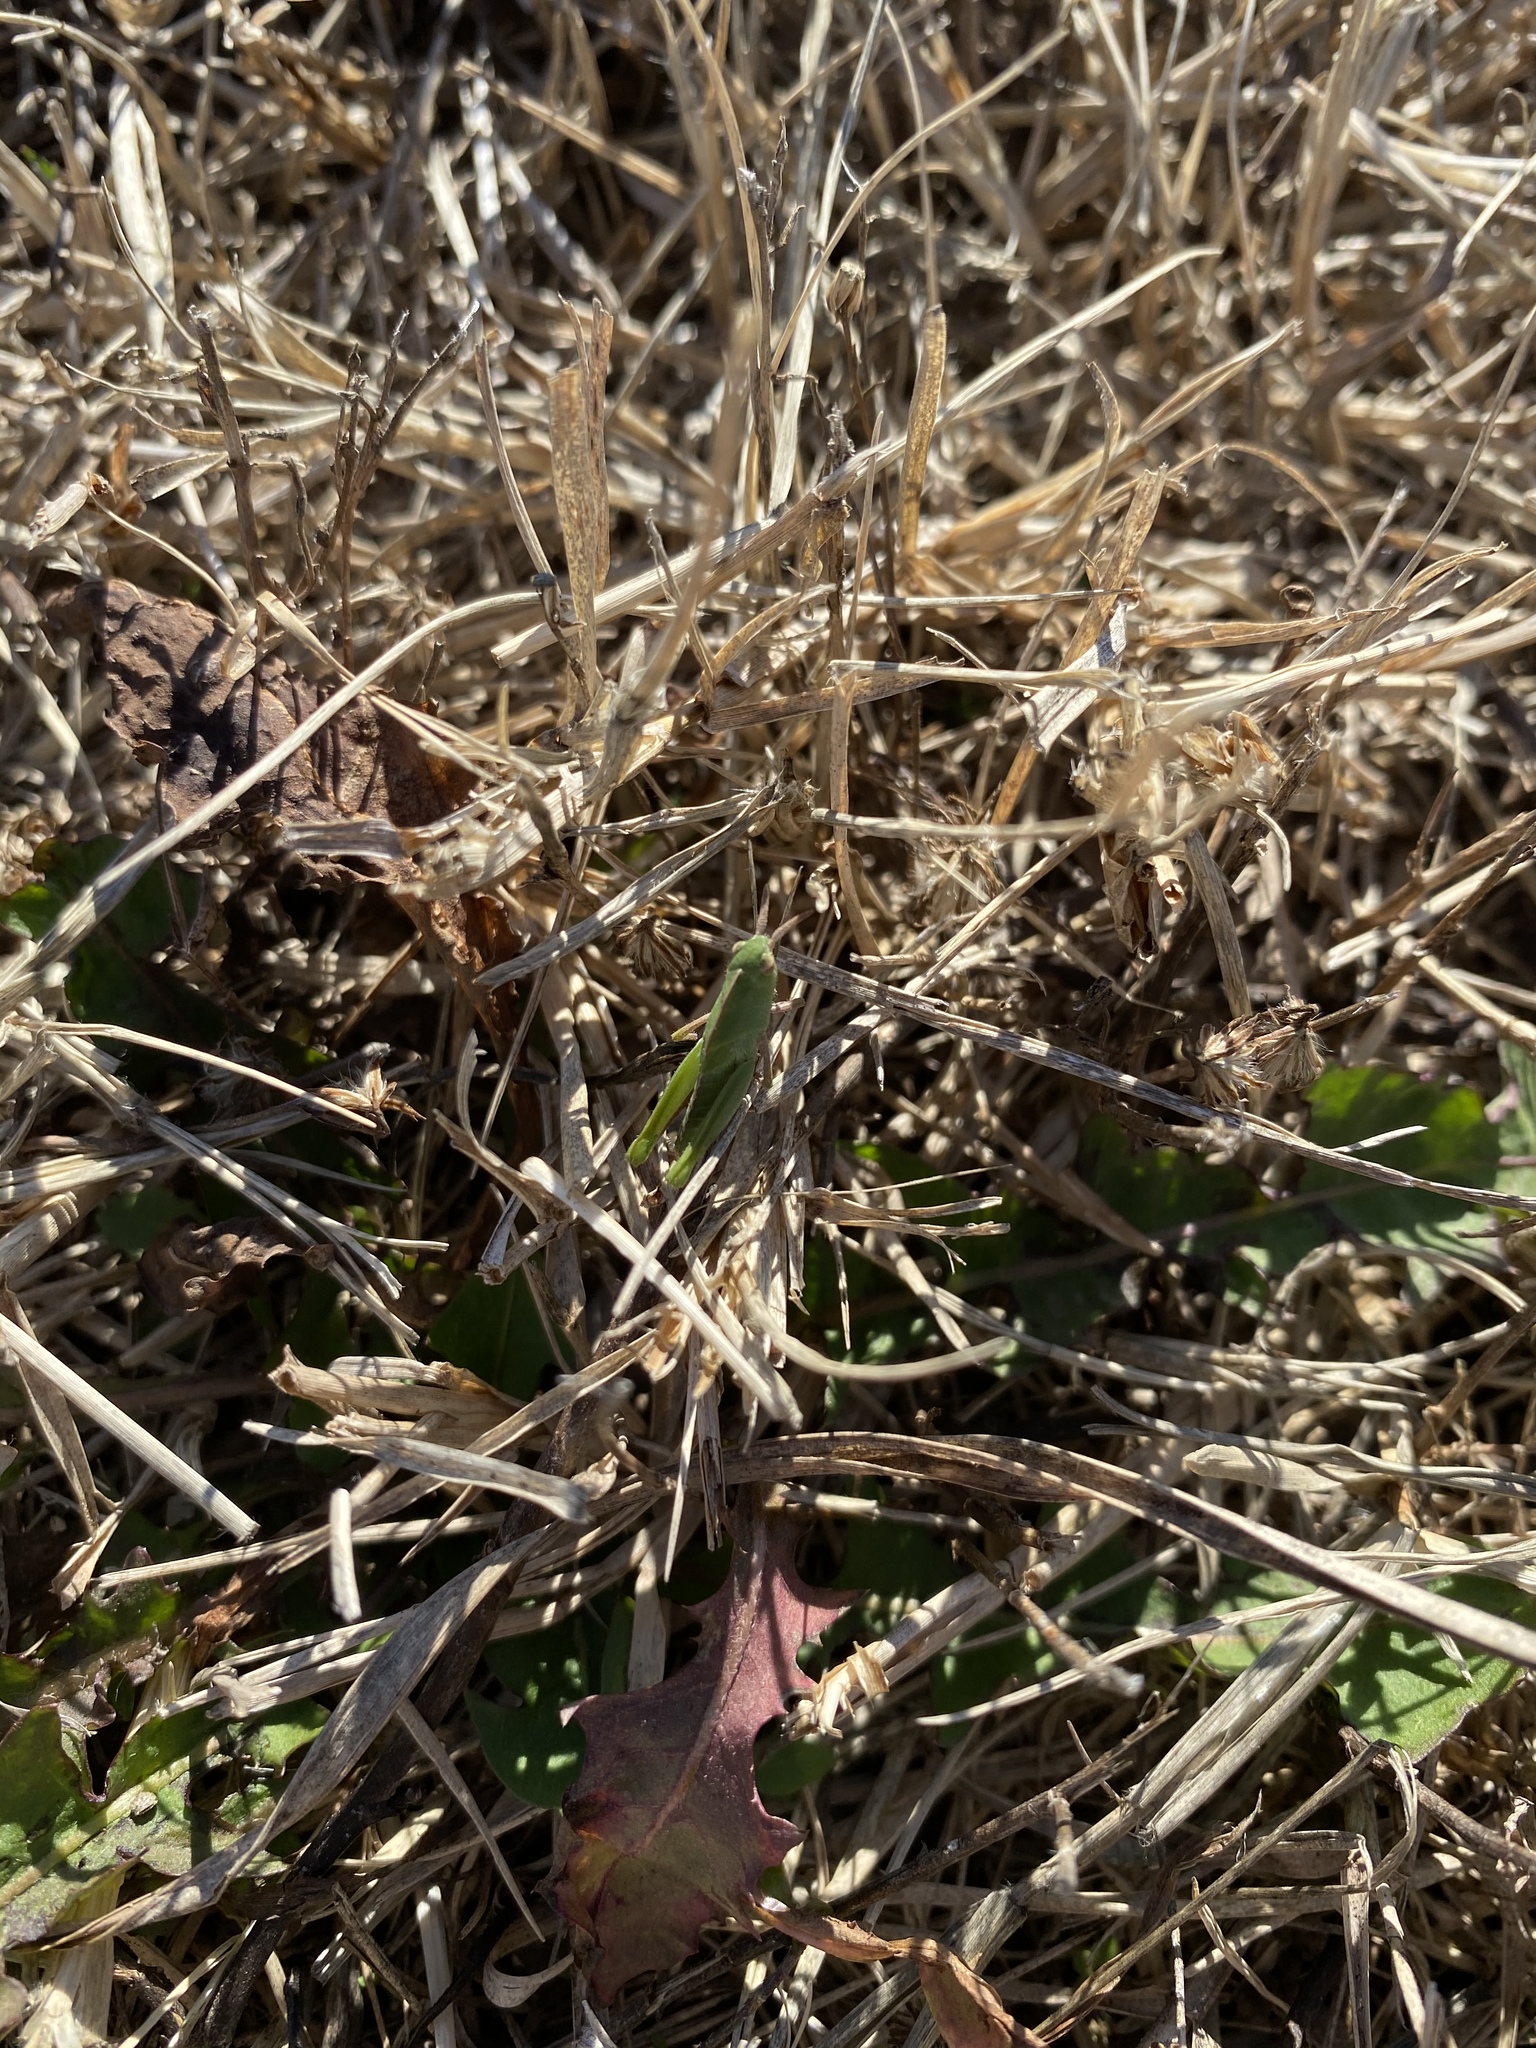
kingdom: Animalia
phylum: Arthropoda
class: Insecta
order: Orthoptera
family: Acrididae
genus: Chortophaga
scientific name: Chortophaga viridifasciata
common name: Green-striped grasshopper
